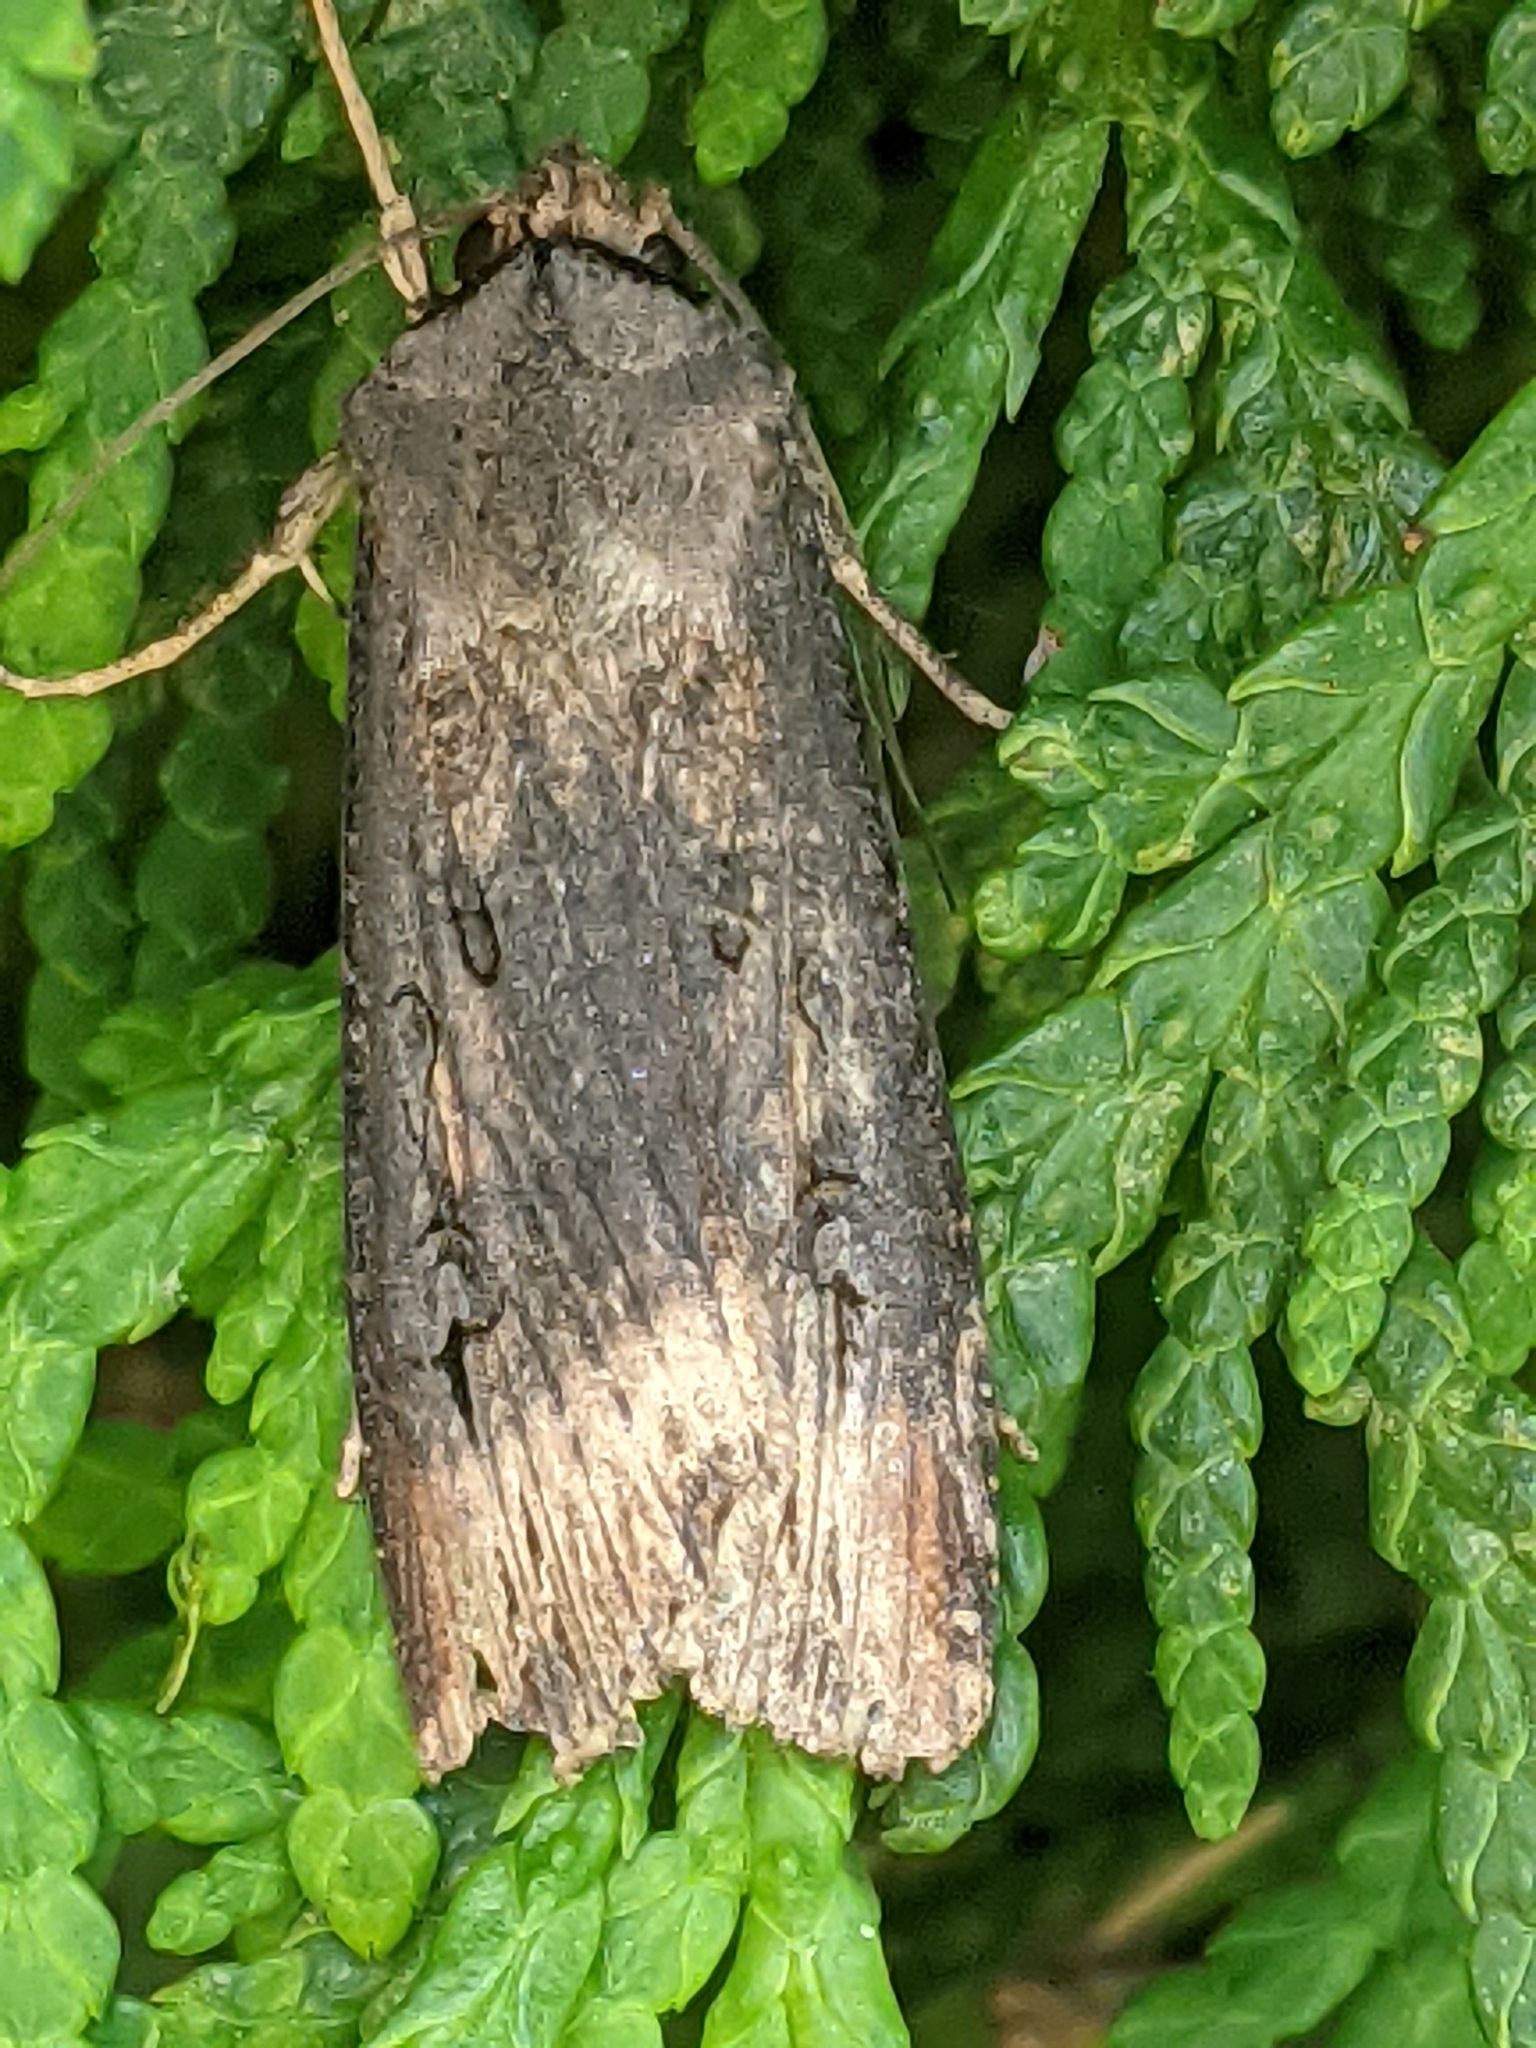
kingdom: Animalia
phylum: Arthropoda
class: Insecta
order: Lepidoptera
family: Noctuidae
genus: Agrotis
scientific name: Agrotis ipsilon
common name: Dark sword-grass
